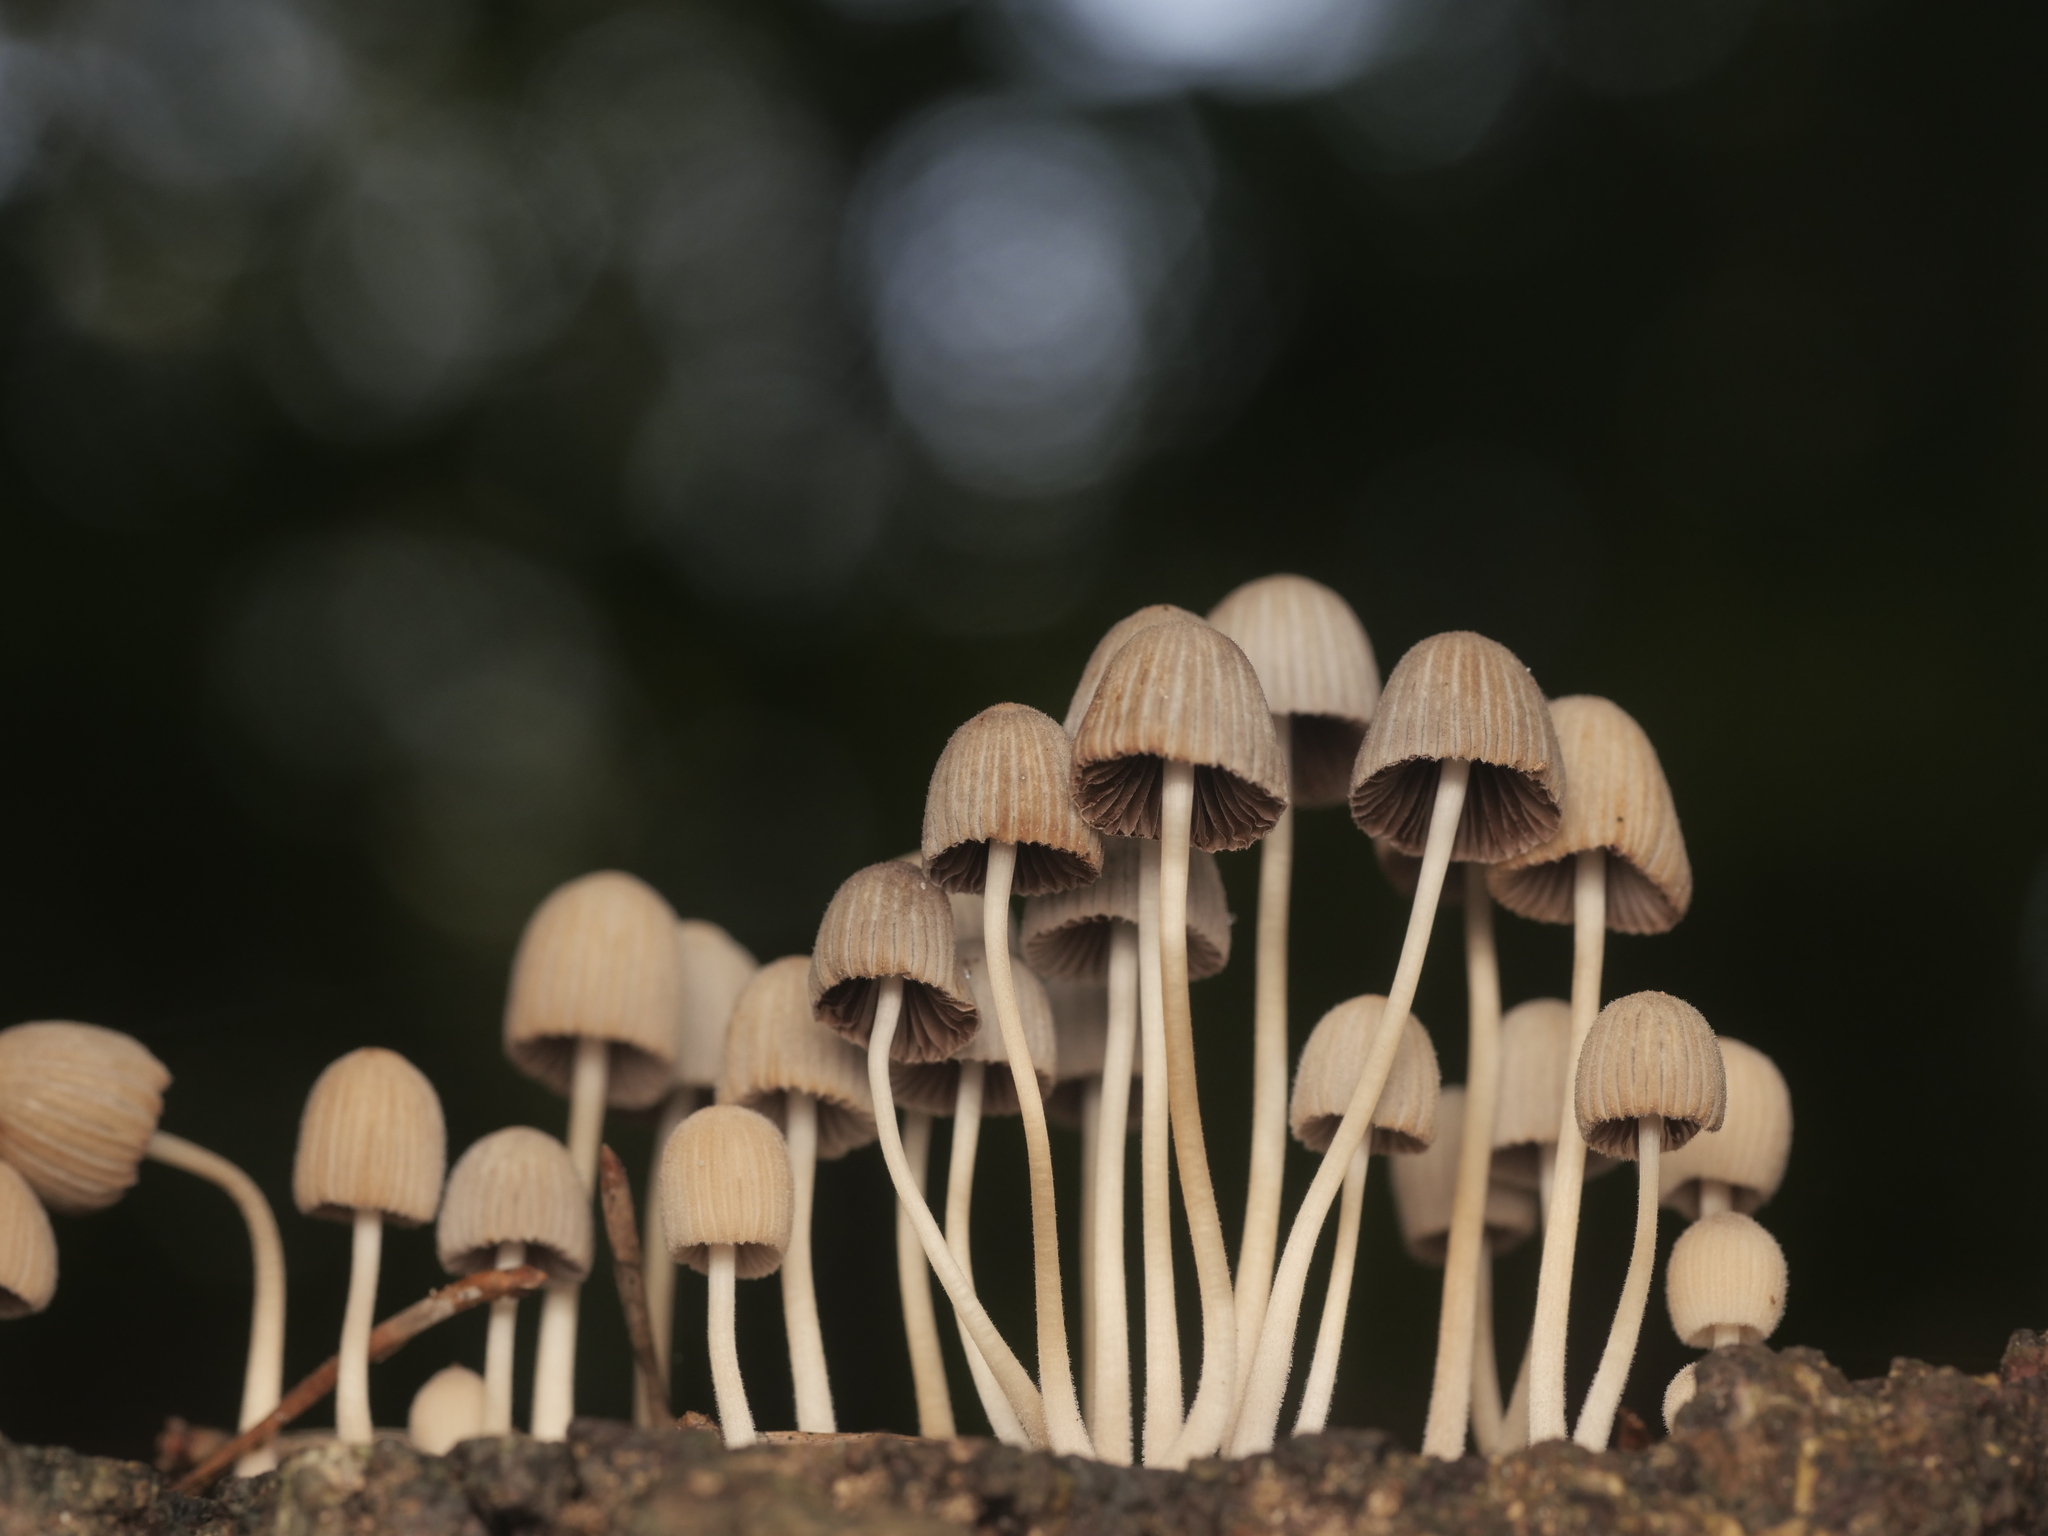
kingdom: Fungi
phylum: Basidiomycota
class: Agaricomycetes
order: Agaricales
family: Psathyrellaceae
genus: Coprinellus
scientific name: Coprinellus disseminatus
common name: Fairies' bonnets
